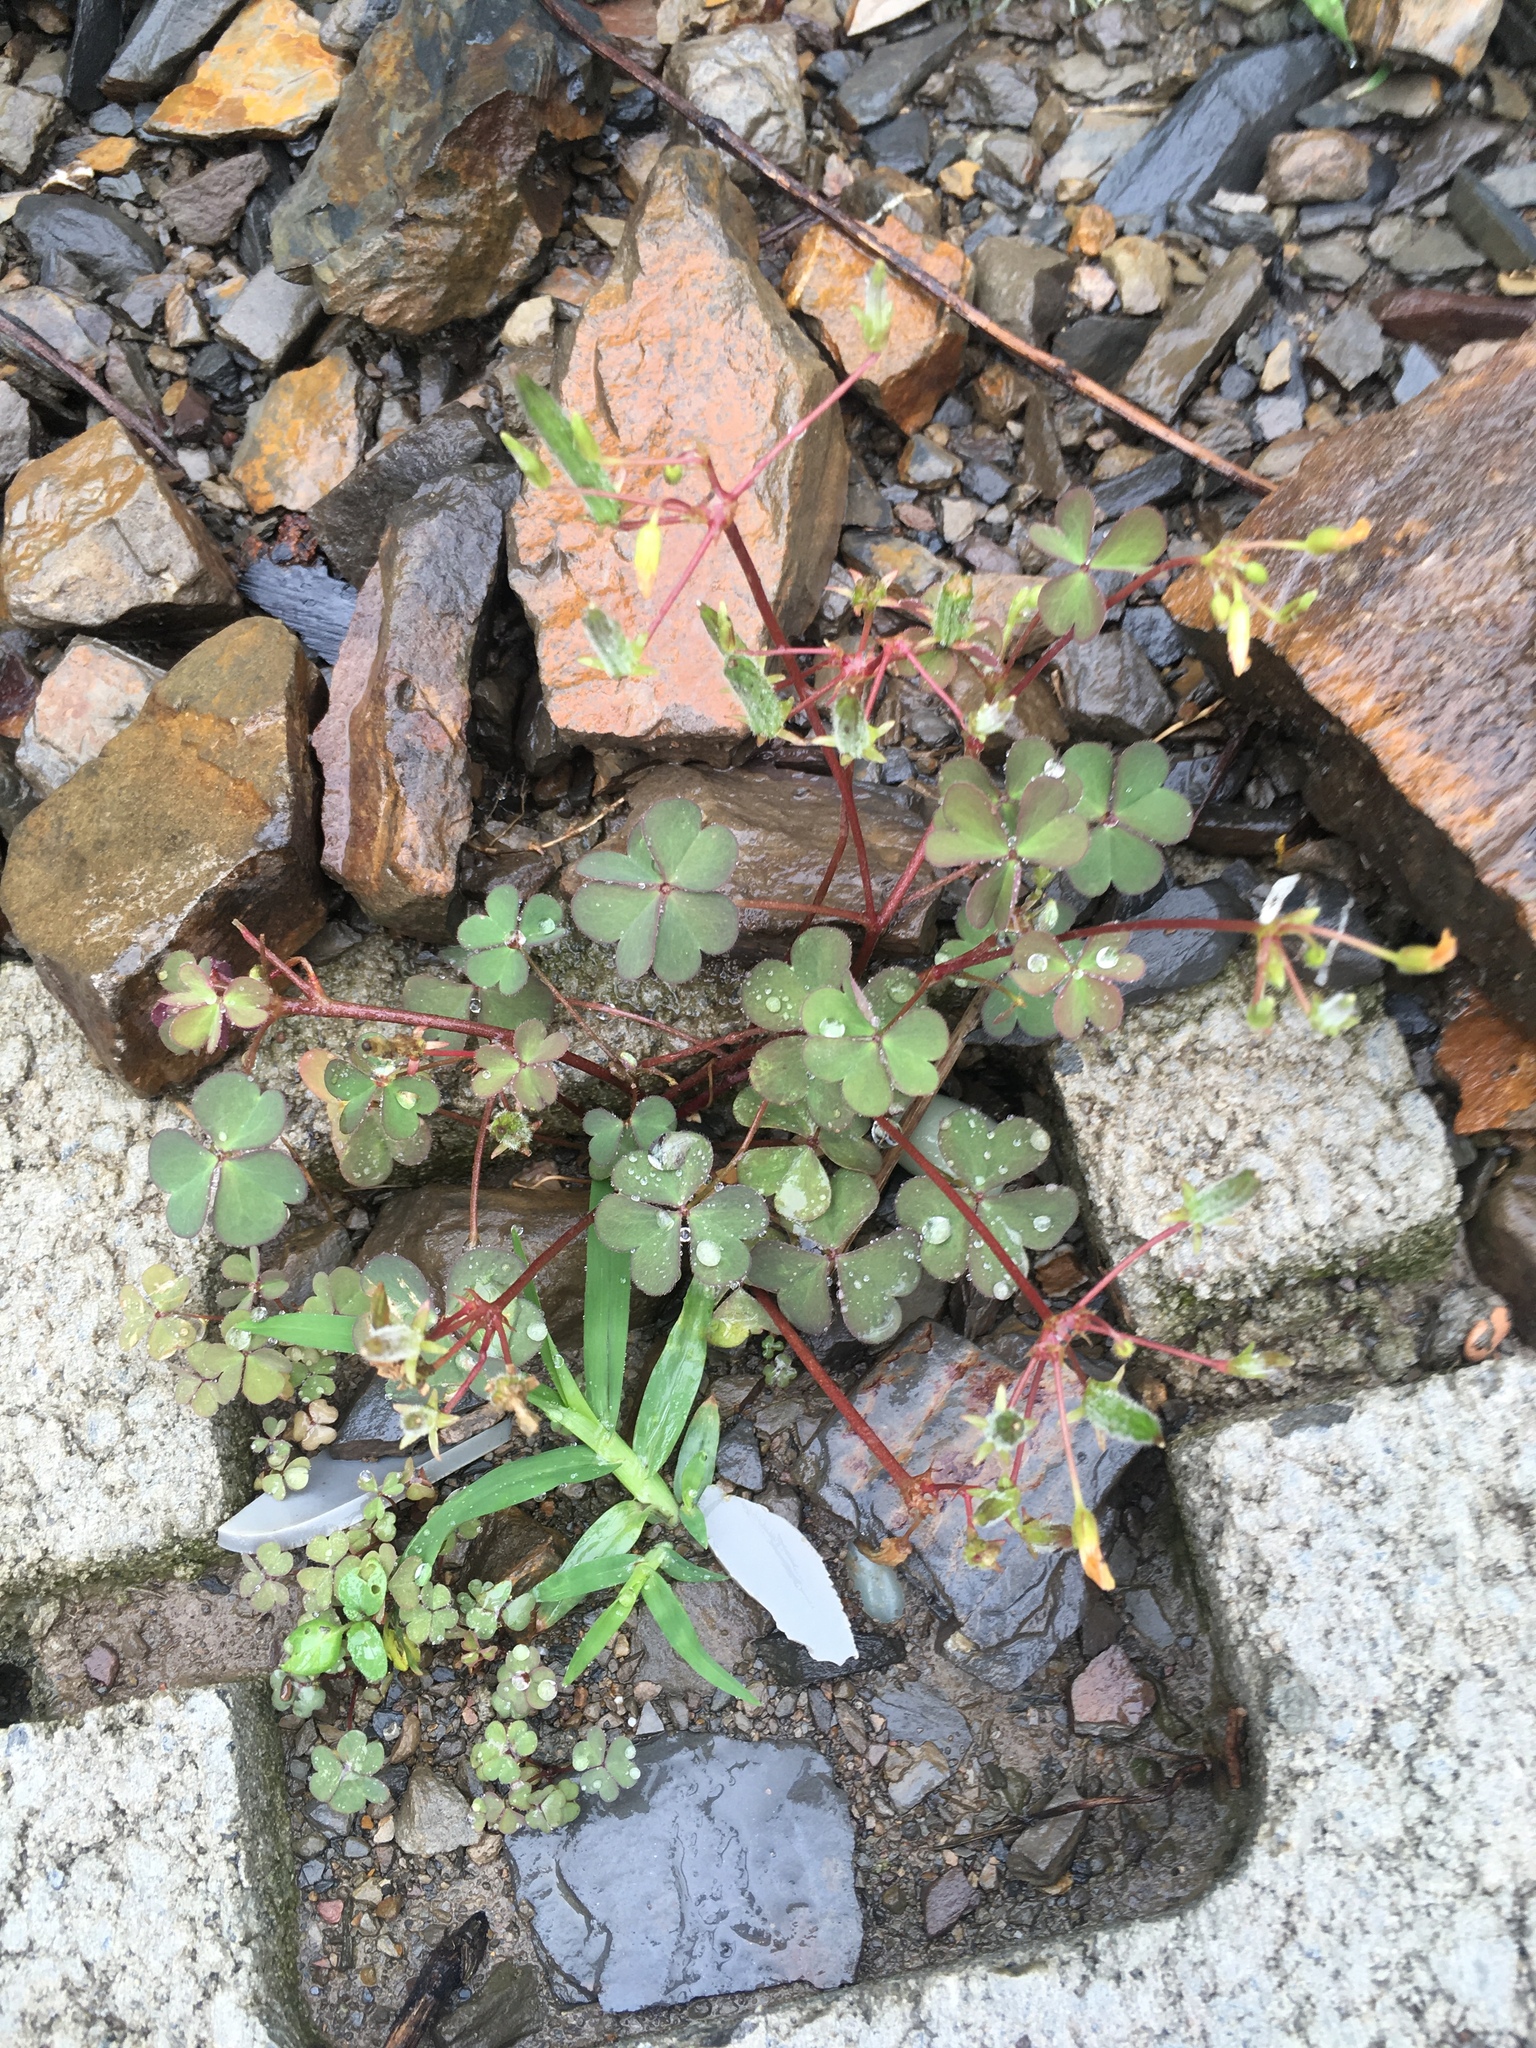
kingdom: Plantae
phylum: Tracheophyta
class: Magnoliopsida
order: Oxalidales
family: Oxalidaceae
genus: Oxalis
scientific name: Oxalis corniculata
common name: Procumbent yellow-sorrel
